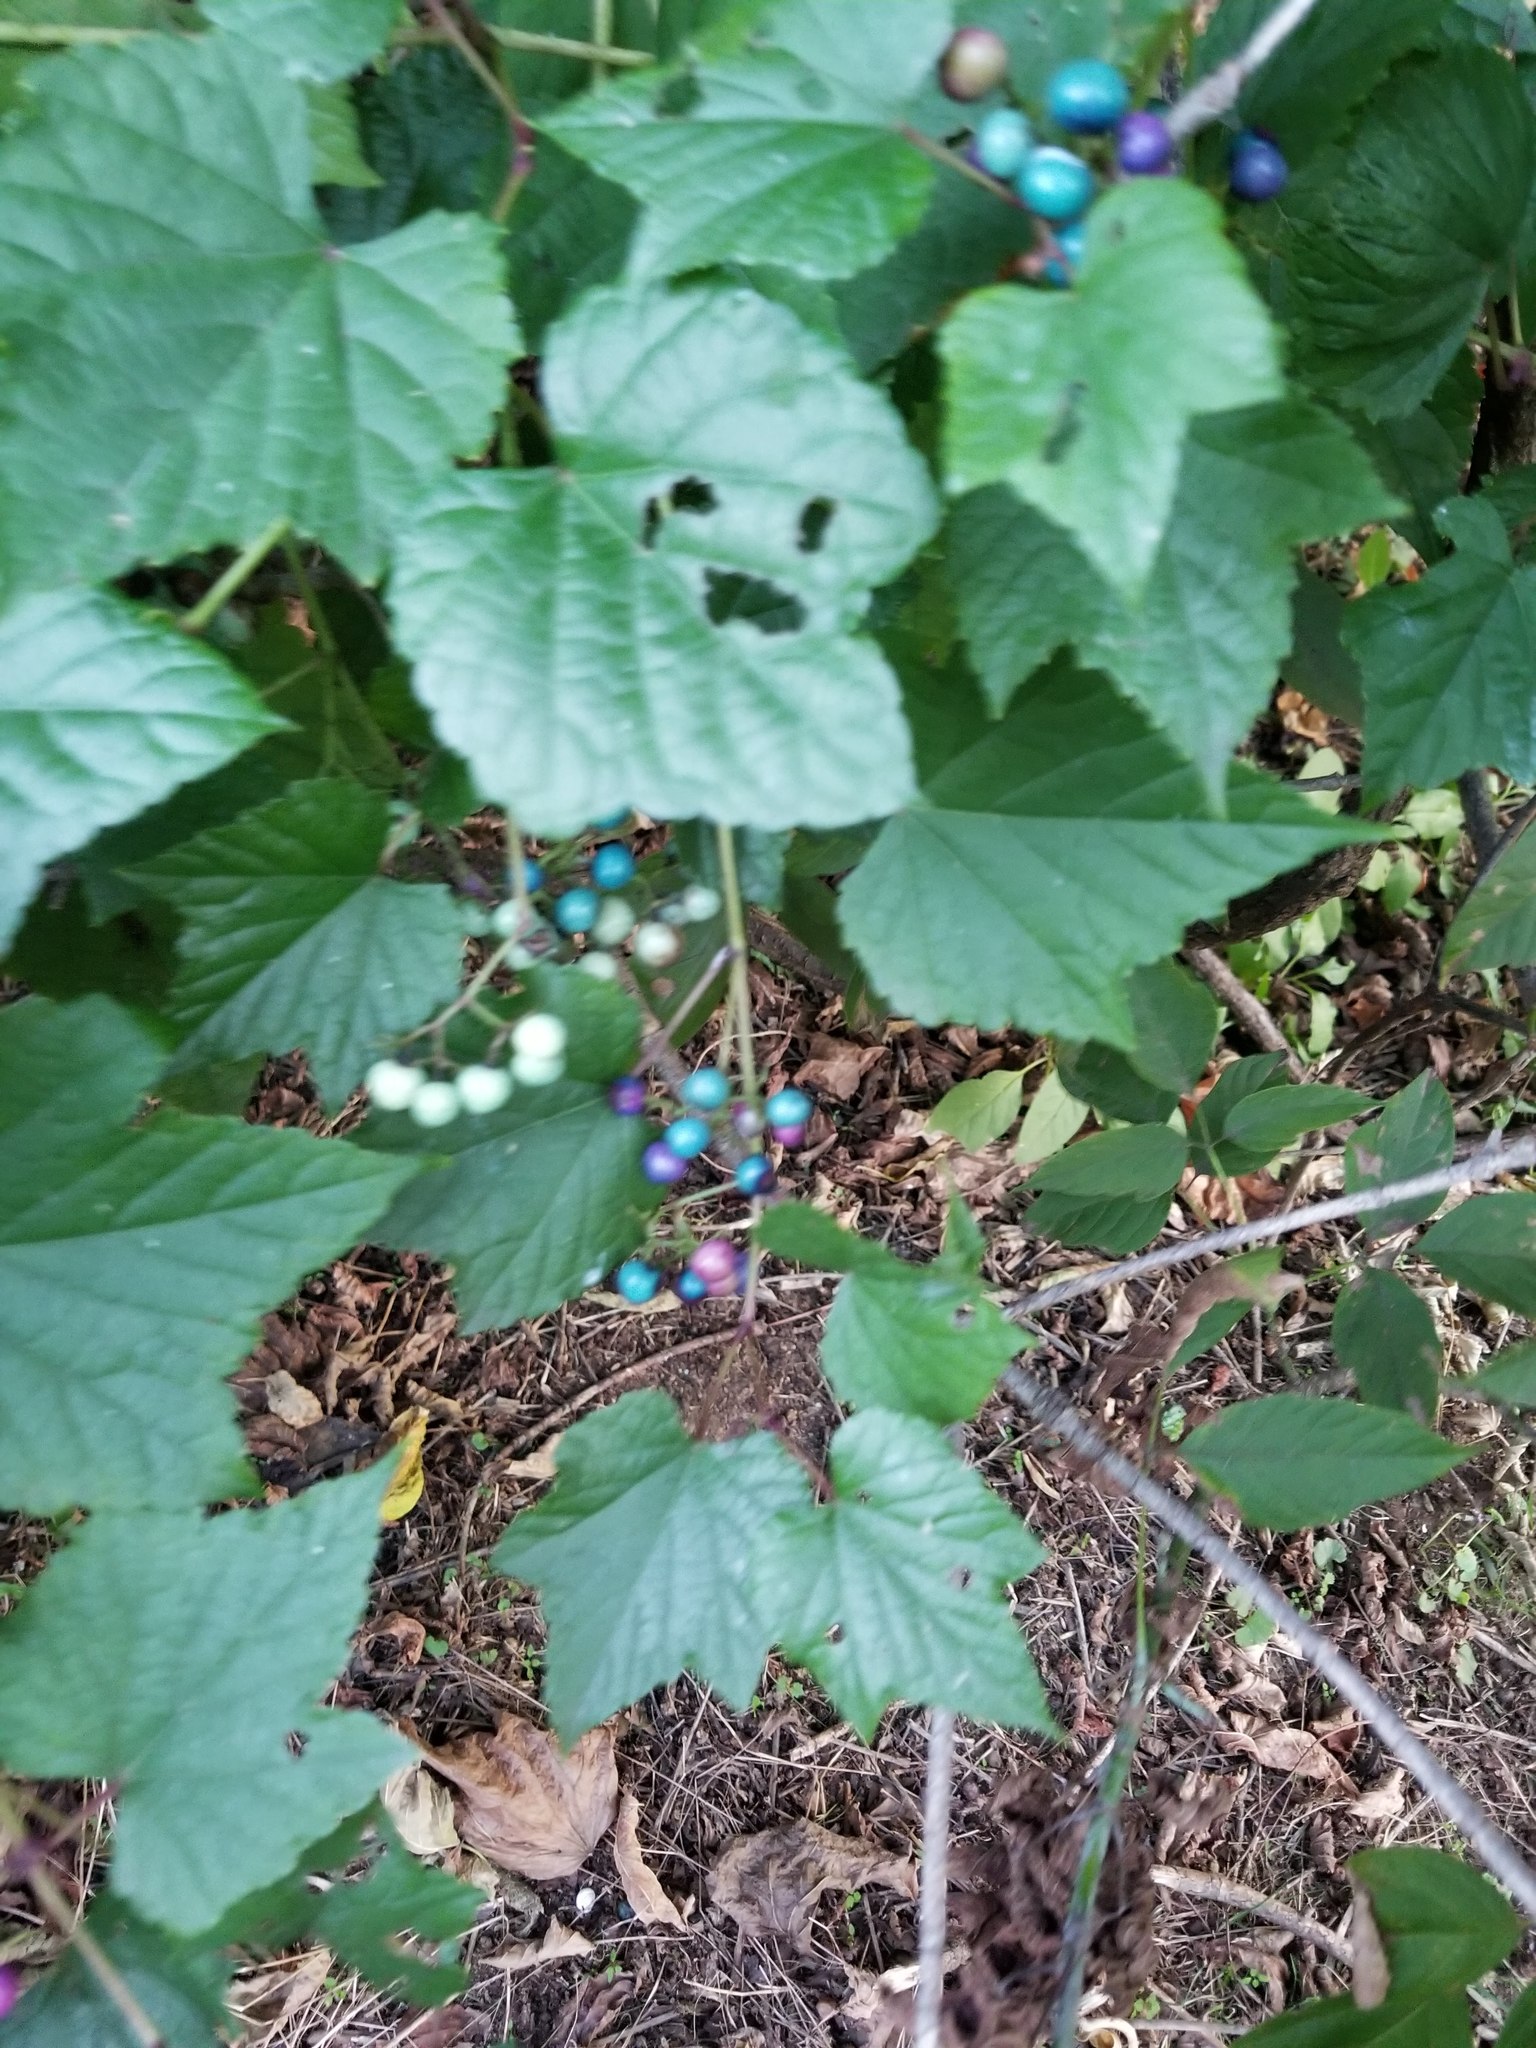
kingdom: Plantae
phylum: Tracheophyta
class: Magnoliopsida
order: Vitales
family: Vitaceae
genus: Ampelopsis
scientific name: Ampelopsis glandulosa
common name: Amur peppervine
